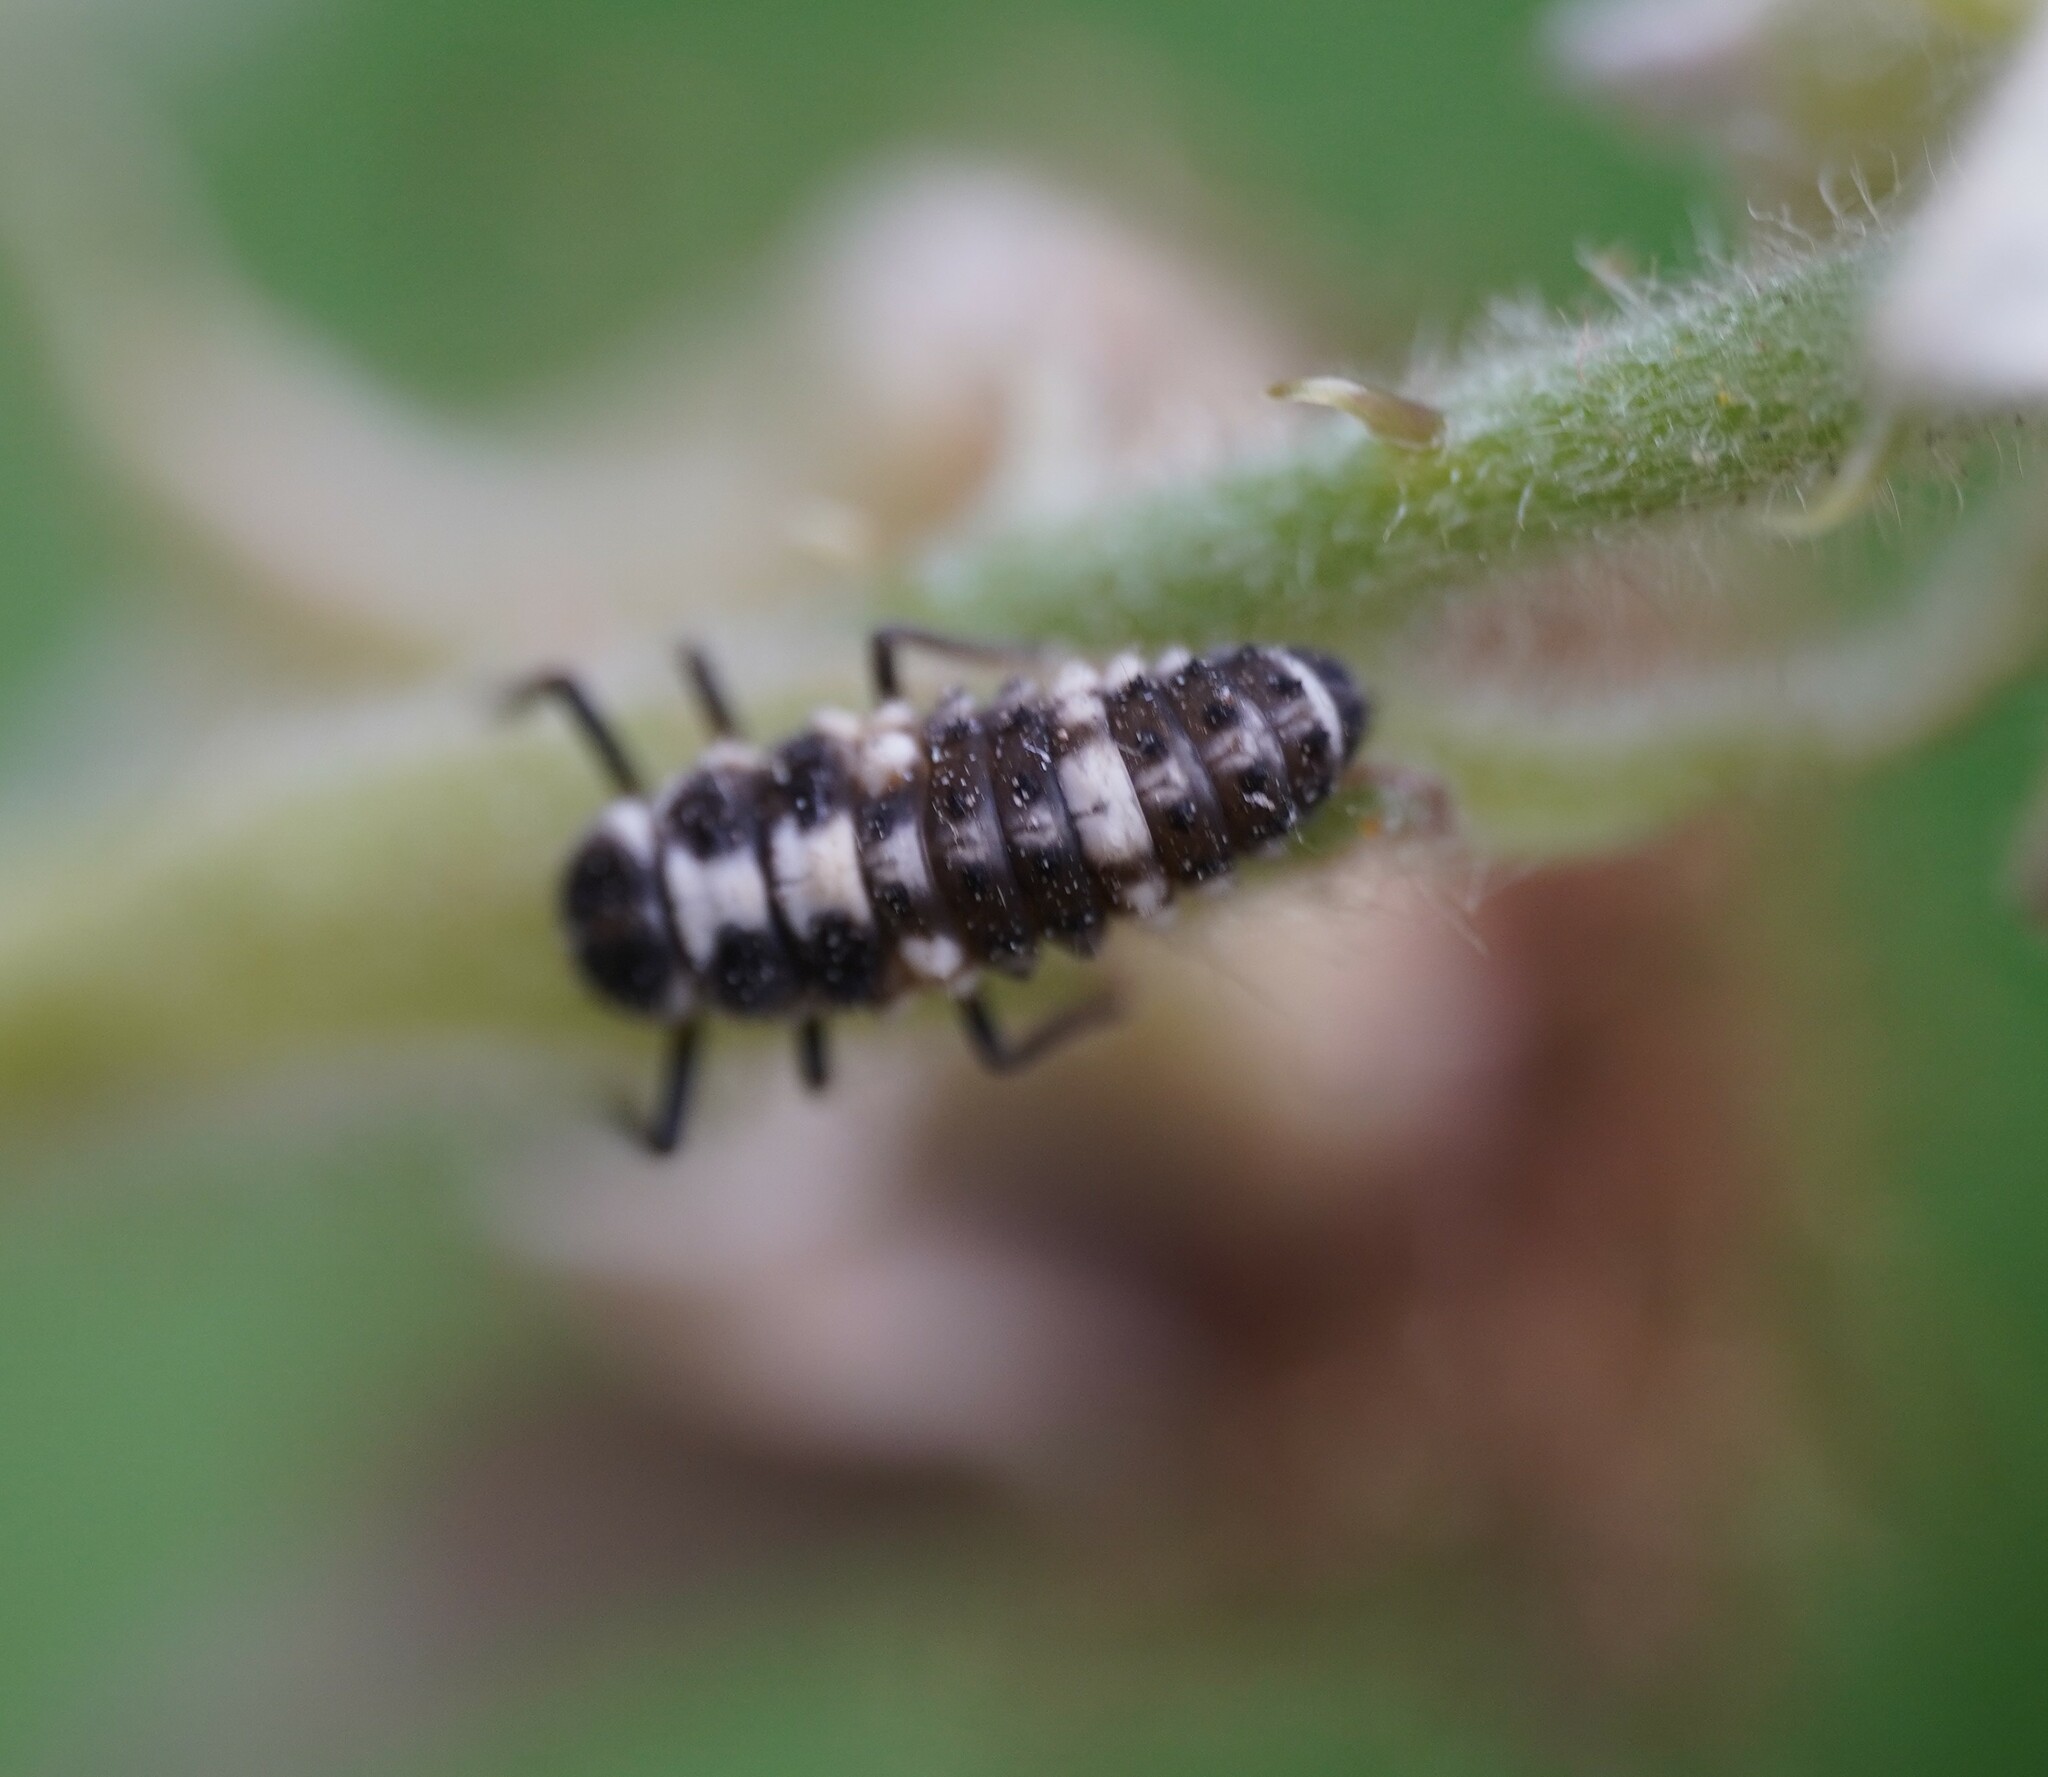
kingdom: Animalia
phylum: Arthropoda
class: Insecta
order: Coleoptera
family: Coccinellidae
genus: Propylaea
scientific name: Propylaea quatuordecimpunctata
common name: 14-spotted ladybird beetle
